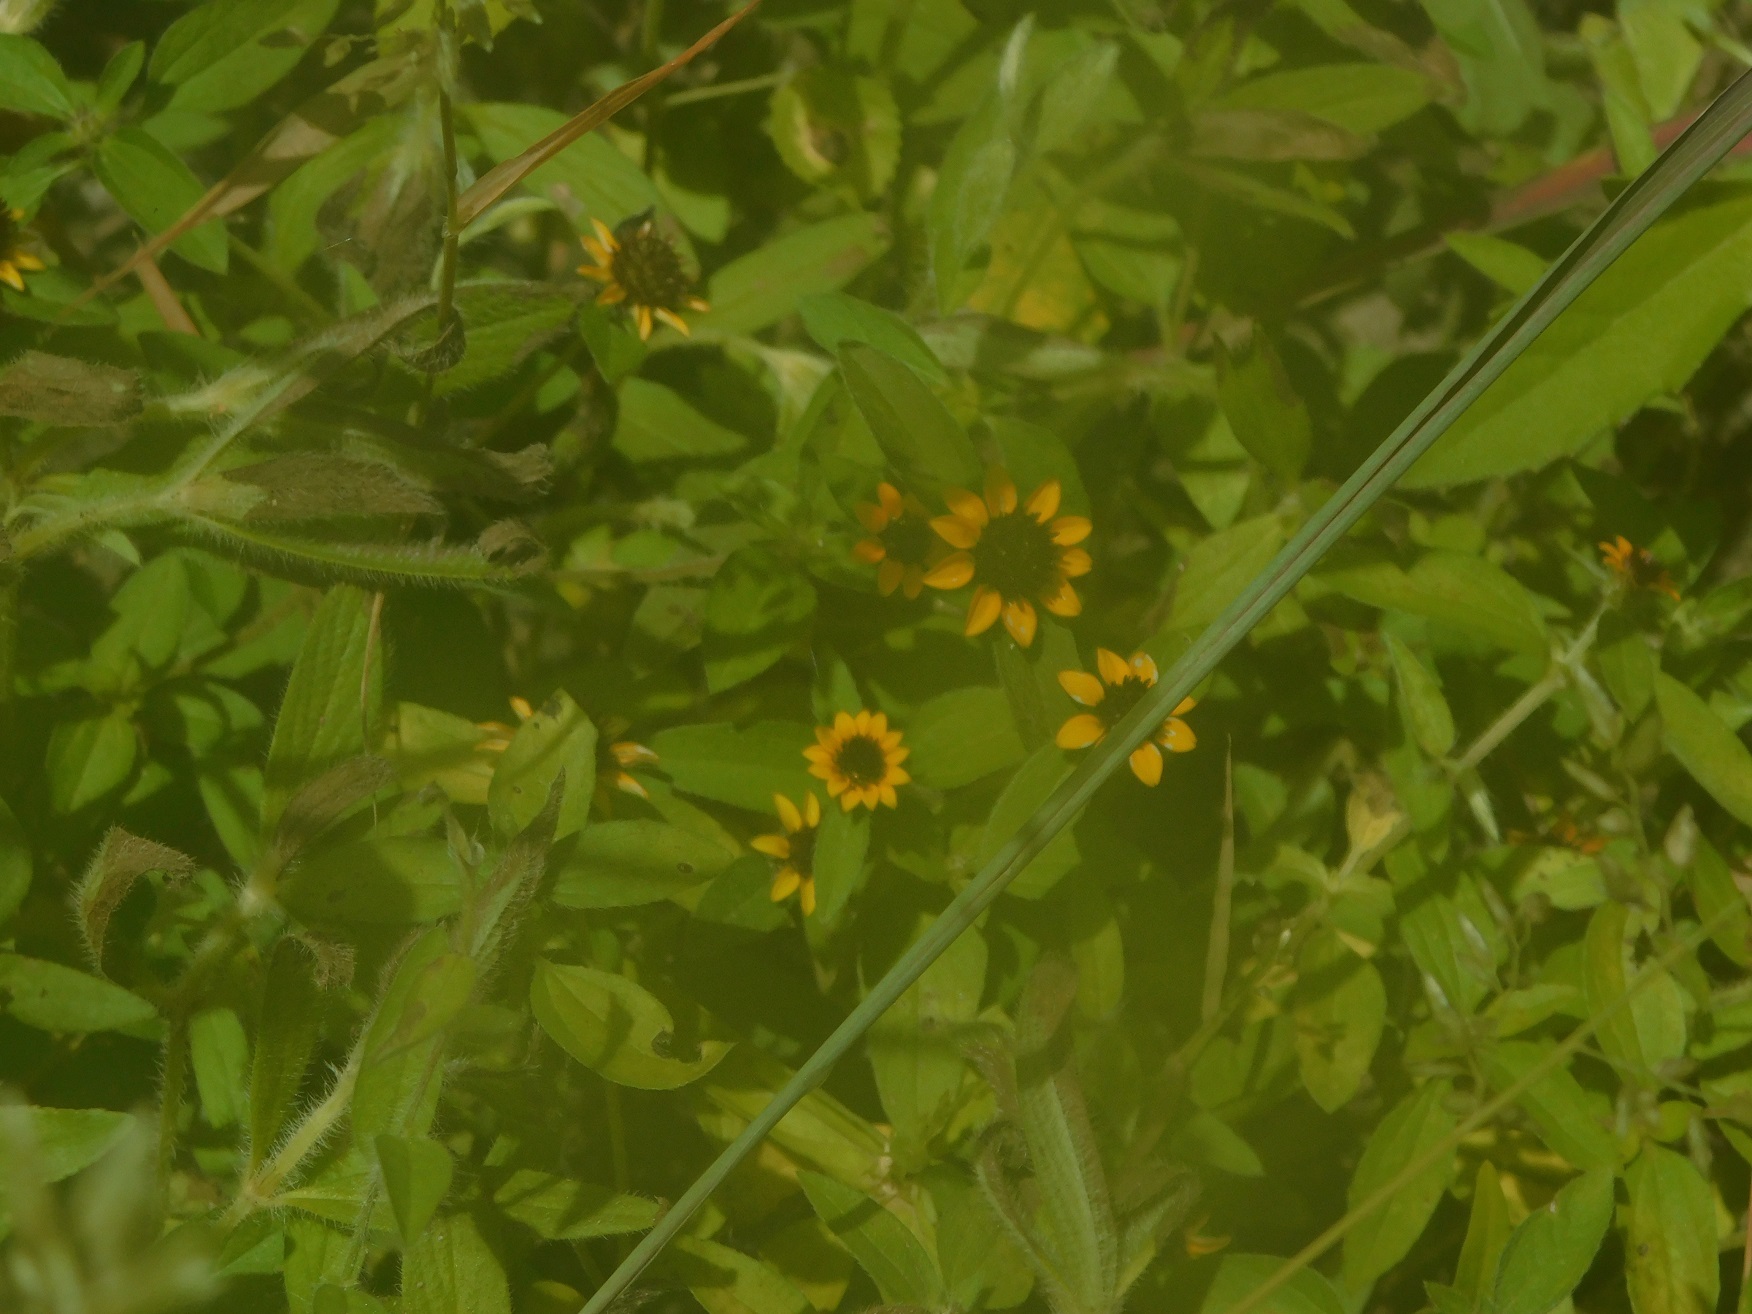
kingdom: Plantae
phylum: Tracheophyta
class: Magnoliopsida
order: Asterales
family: Asteraceae
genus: Sanvitalia
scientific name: Sanvitalia procumbens
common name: Mexican creeping zinnia
